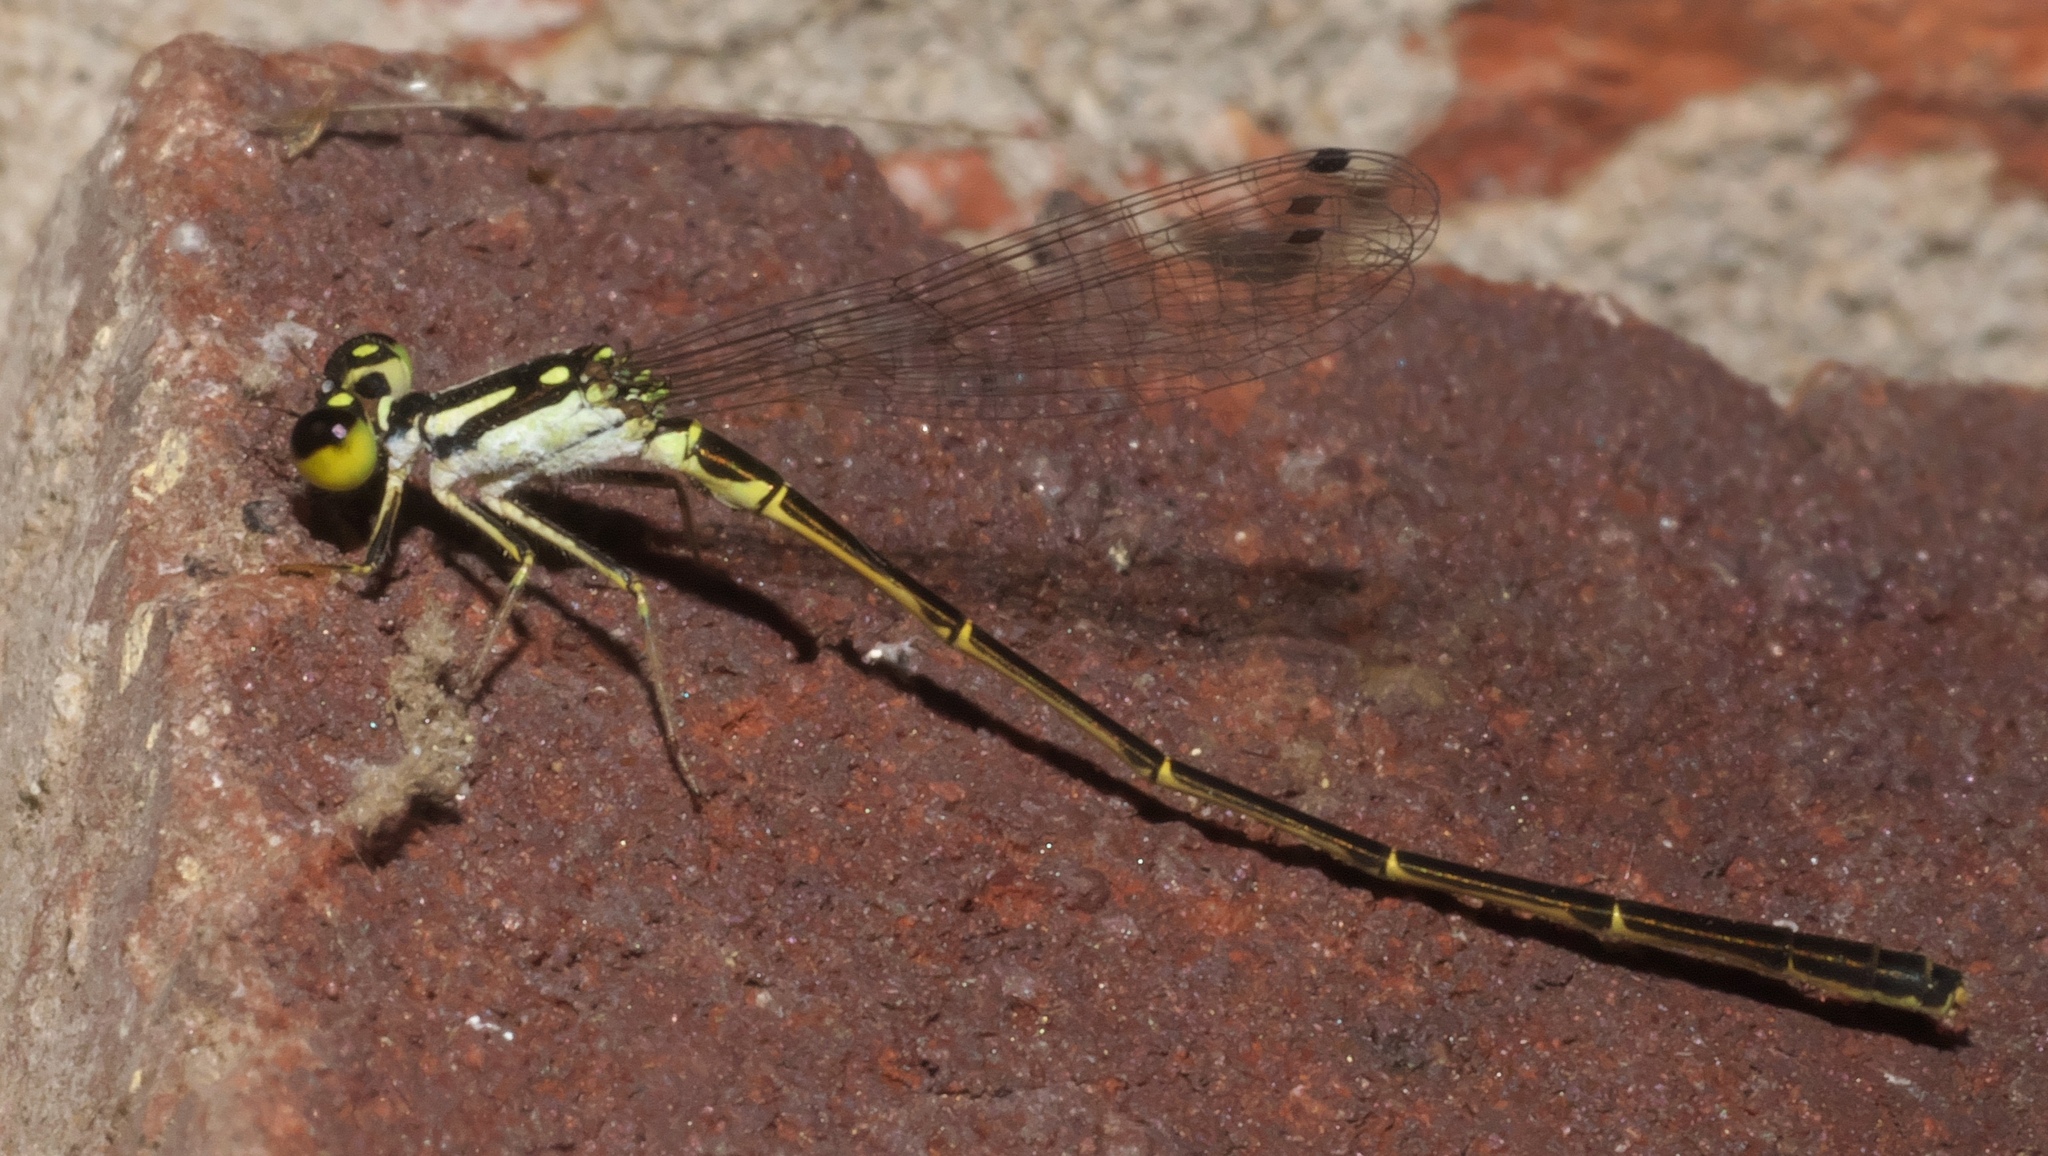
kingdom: Animalia
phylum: Arthropoda
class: Insecta
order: Odonata
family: Coenagrionidae
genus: Ischnura
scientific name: Ischnura posita
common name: Fragile forktail
